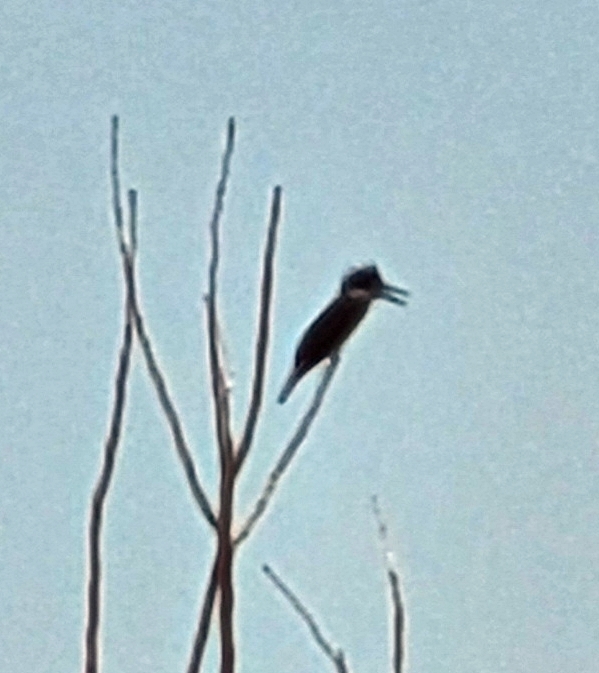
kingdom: Animalia
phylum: Chordata
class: Aves
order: Coraciiformes
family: Alcedinidae
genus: Megaceryle
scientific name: Megaceryle alcyon
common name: Belted kingfisher
